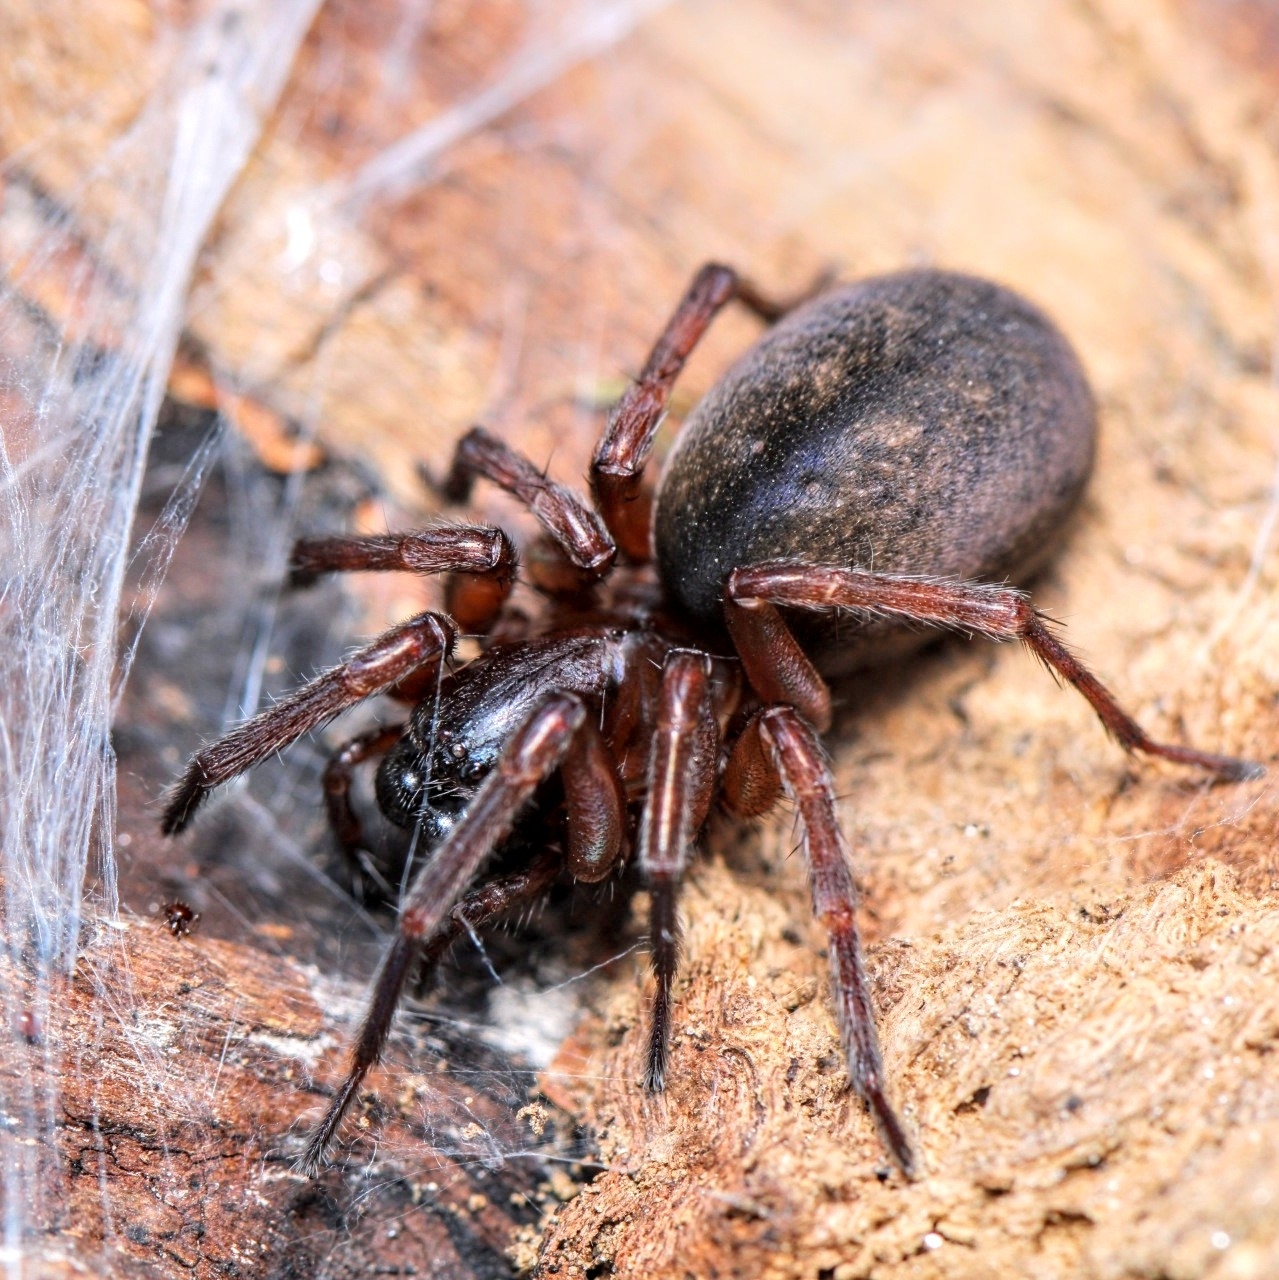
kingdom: Animalia
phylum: Arthropoda
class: Arachnida
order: Araneae
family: Agelenidae
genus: Wadotes
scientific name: Wadotes
